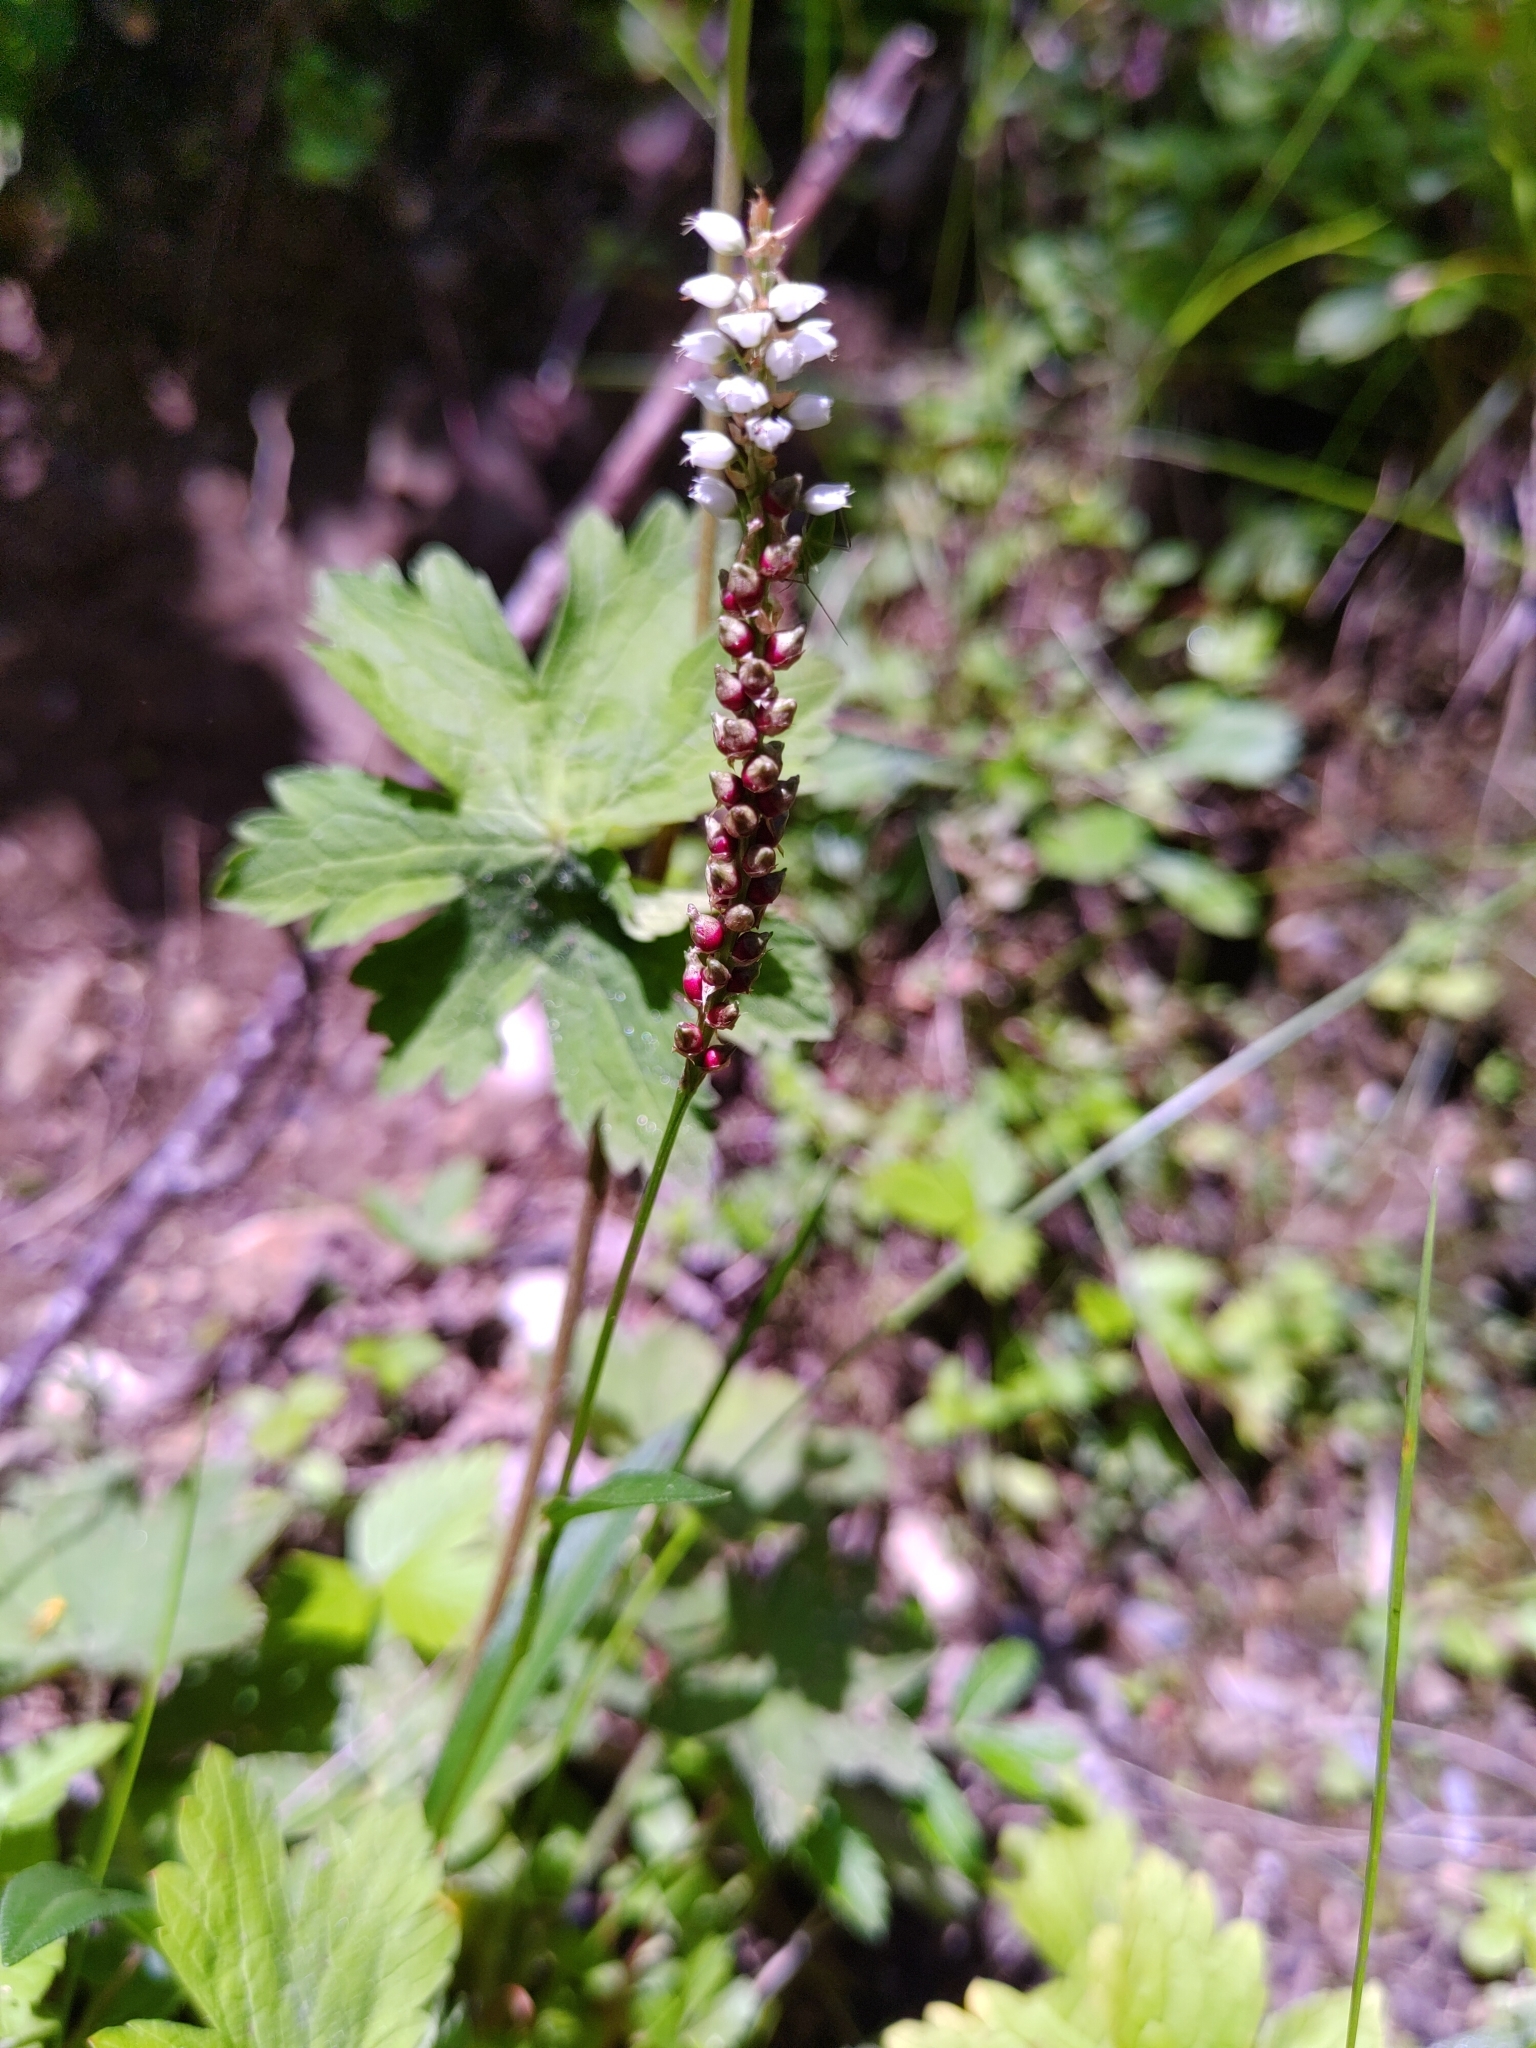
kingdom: Plantae
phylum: Tracheophyta
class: Magnoliopsida
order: Caryophyllales
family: Polygonaceae
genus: Bistorta
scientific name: Bistorta vivipara
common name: Alpine bistort
